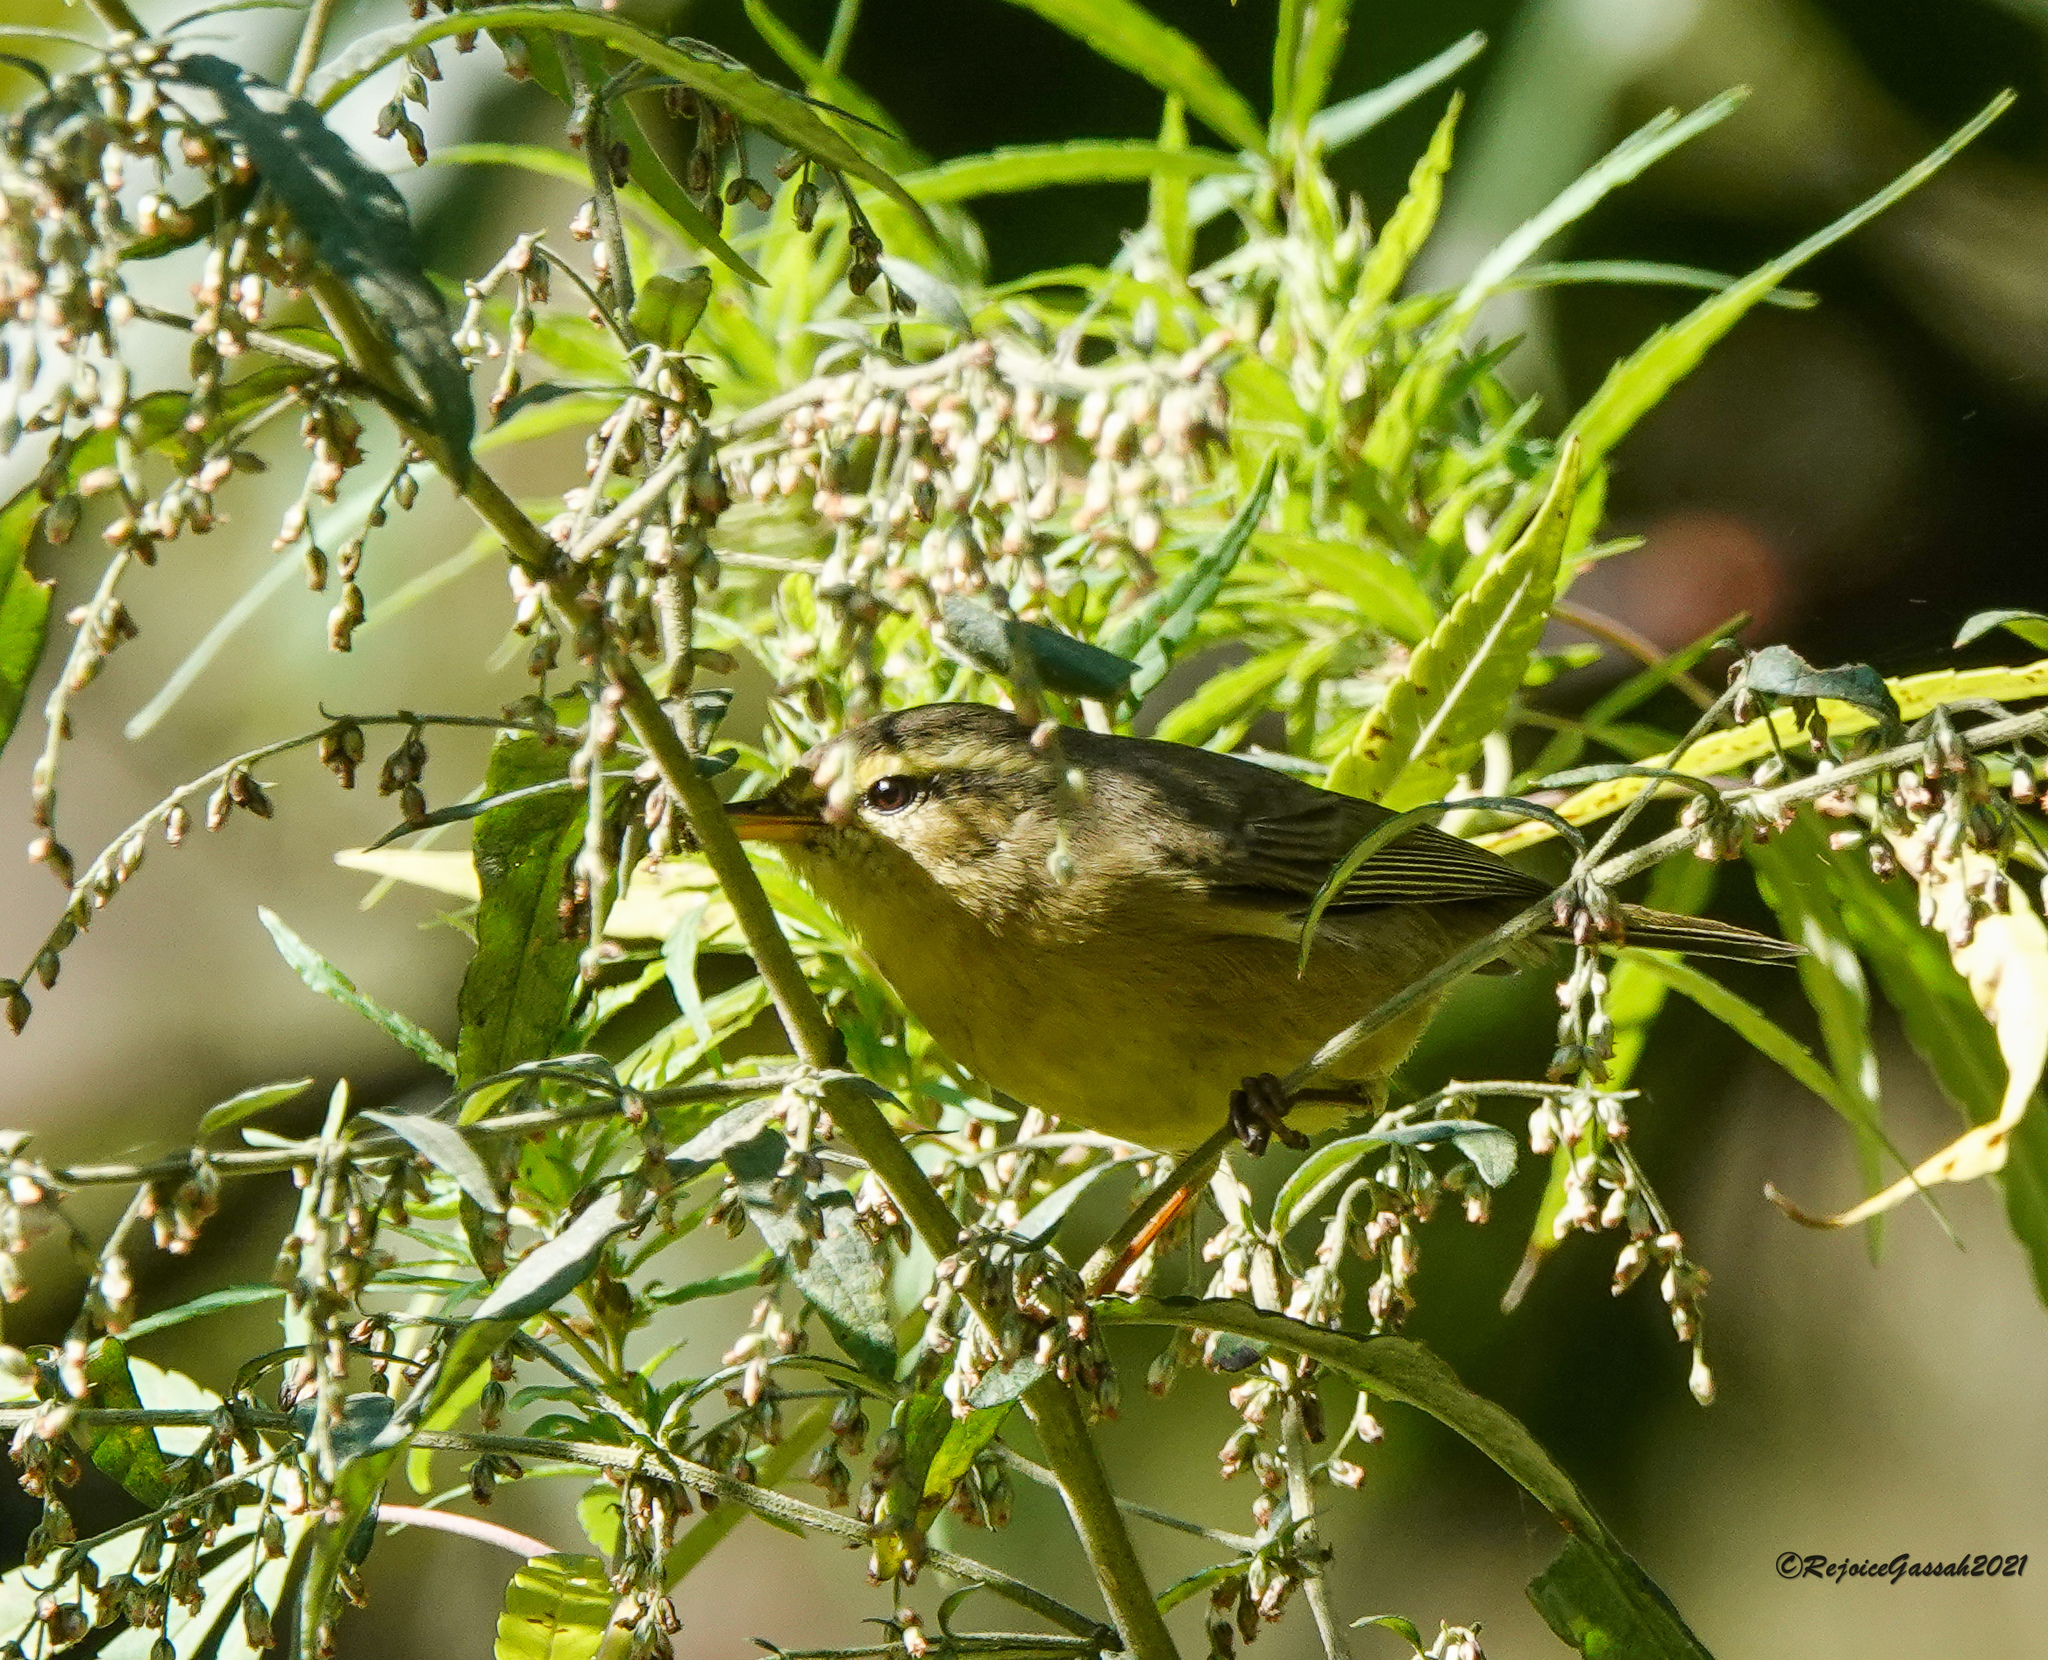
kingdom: Animalia
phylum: Chordata
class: Aves
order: Passeriformes
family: Phylloscopidae
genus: Phylloscopus
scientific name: Phylloscopus affinis
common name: Tickell's leaf warbler
